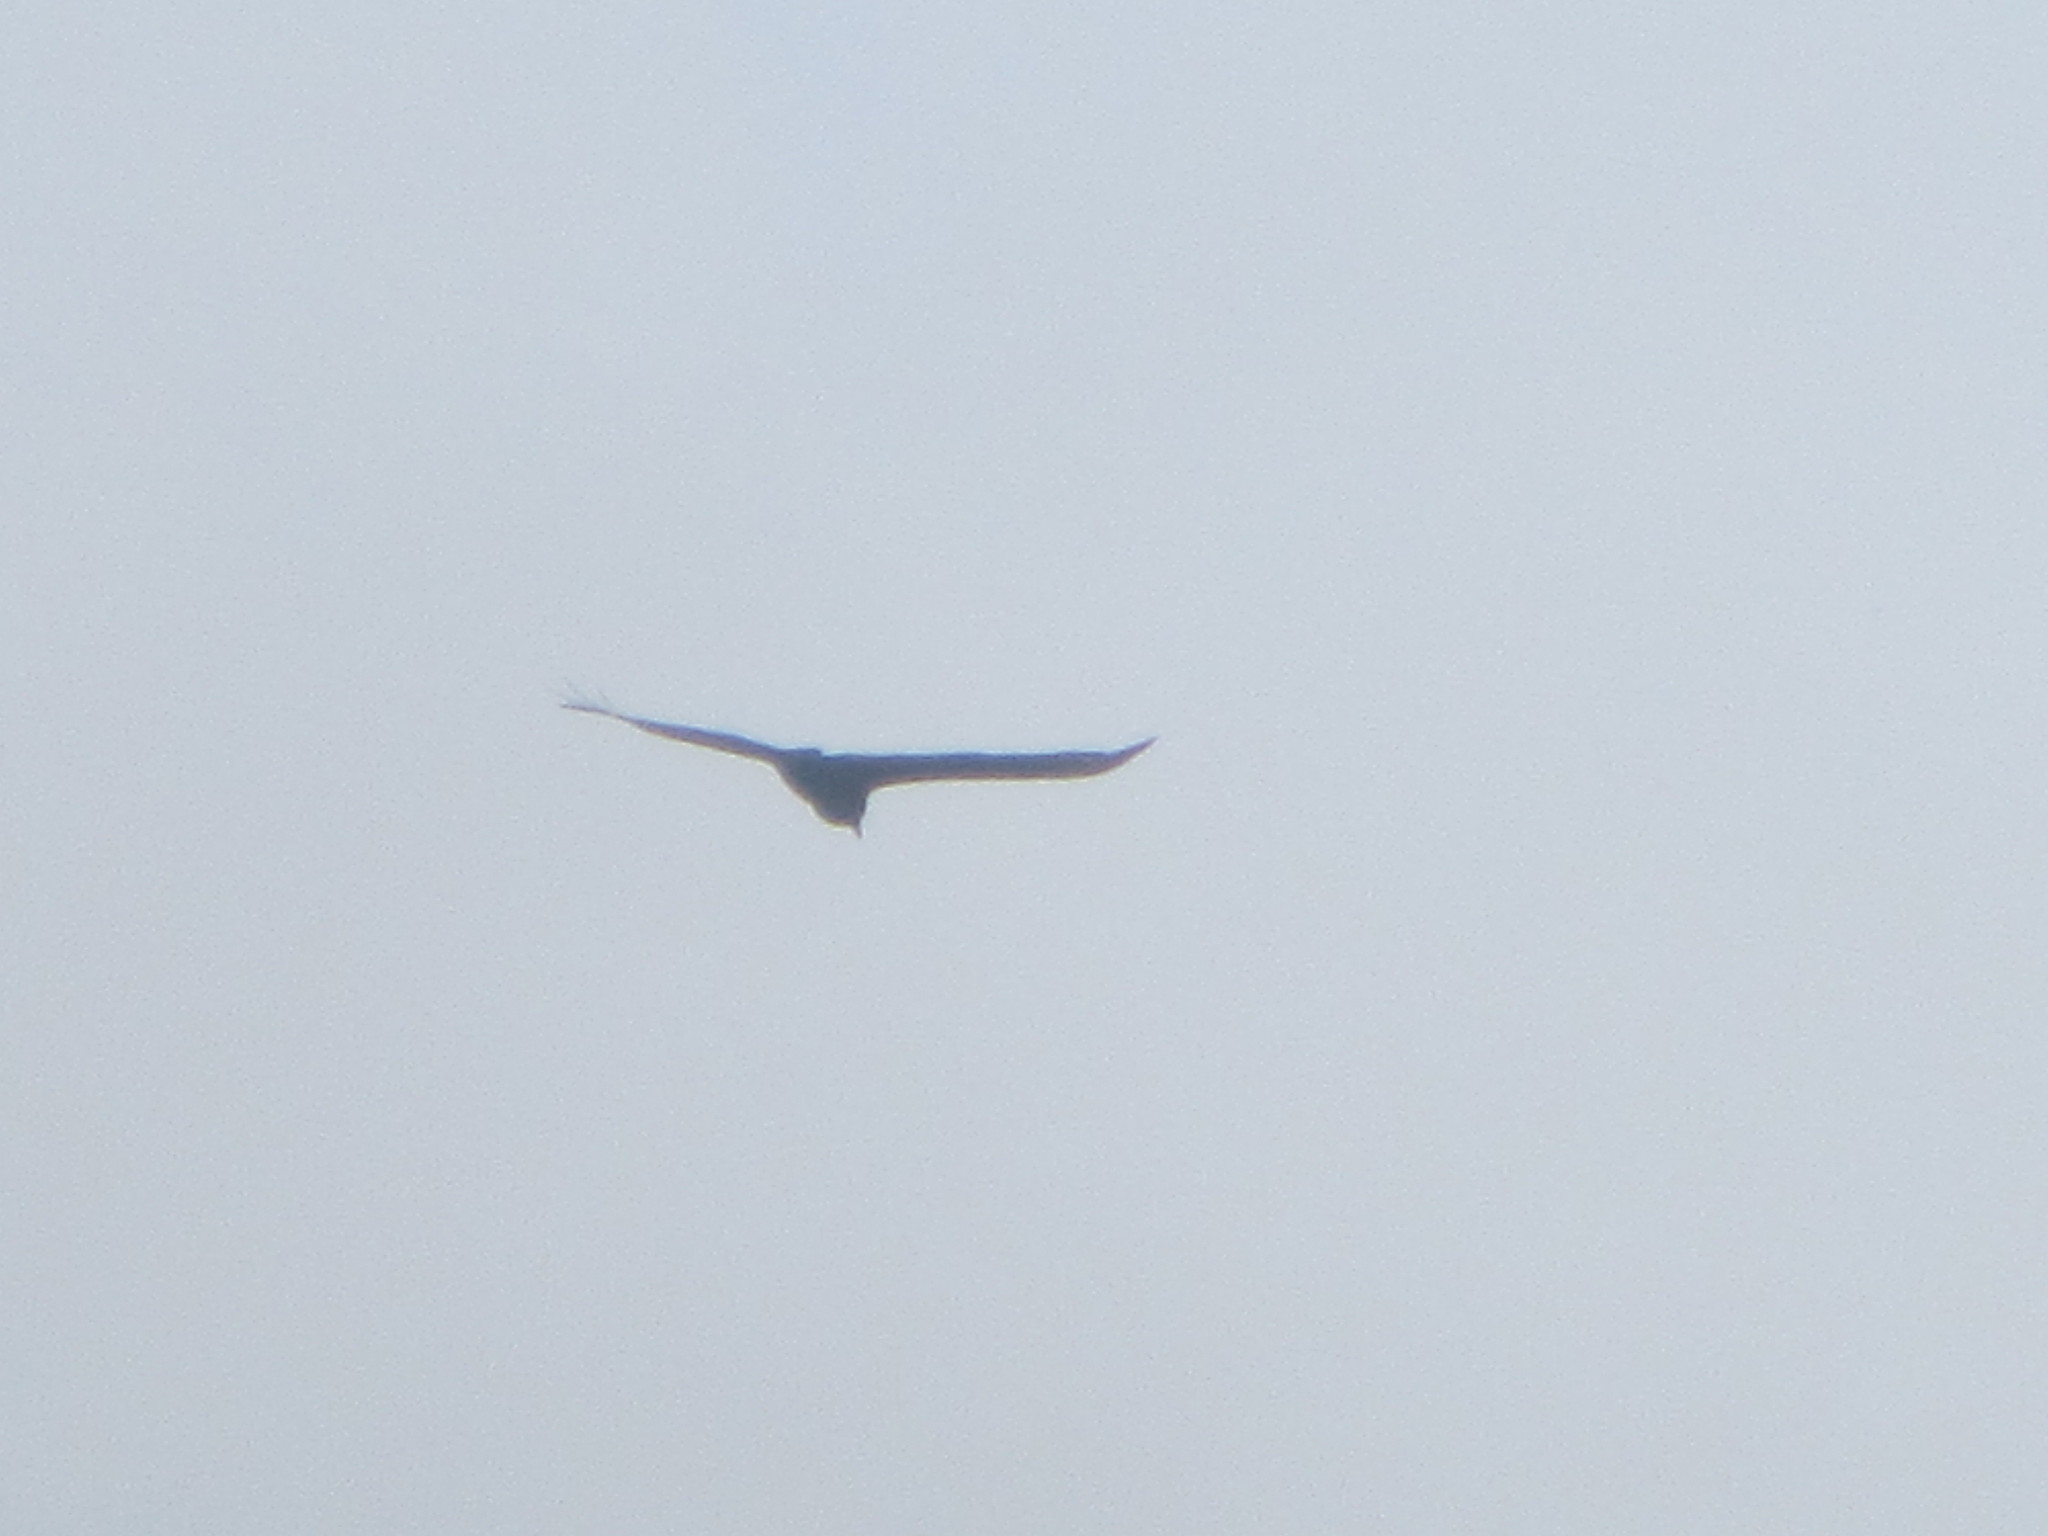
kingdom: Animalia
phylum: Chordata
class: Aves
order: Accipitriformes
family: Cathartidae
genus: Cathartes
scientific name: Cathartes aura
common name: Turkey vulture
